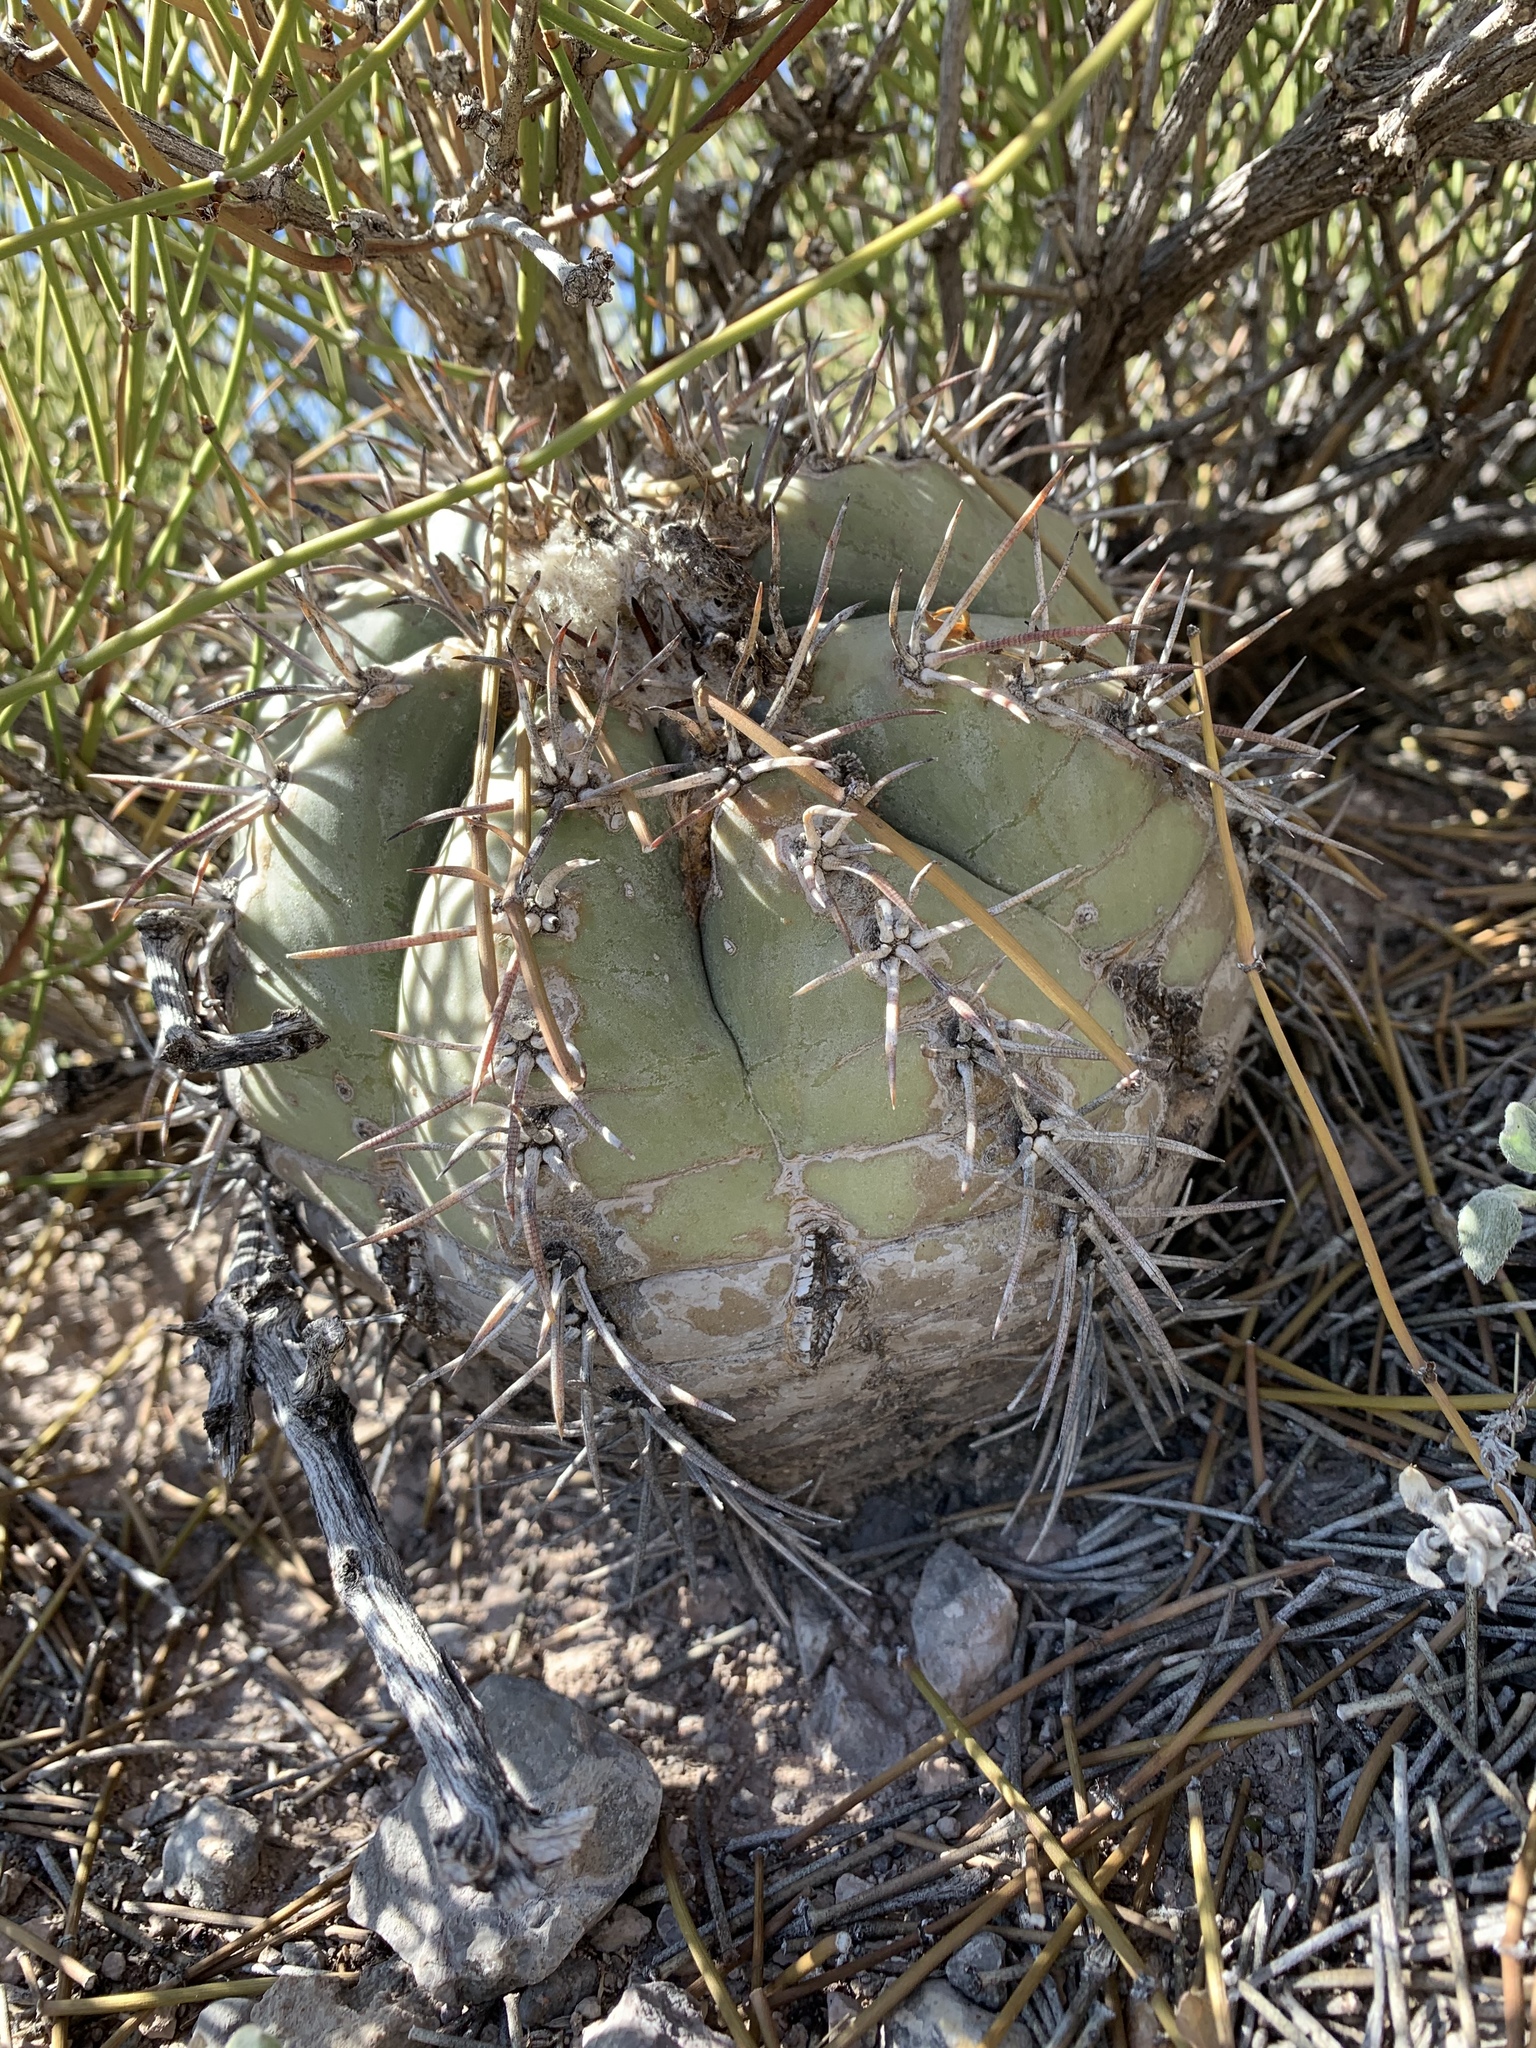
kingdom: Plantae
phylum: Tracheophyta
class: Magnoliopsida
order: Caryophyllales
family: Cactaceae
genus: Echinocactus
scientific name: Echinocactus horizonthalonius
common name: Devilshead
